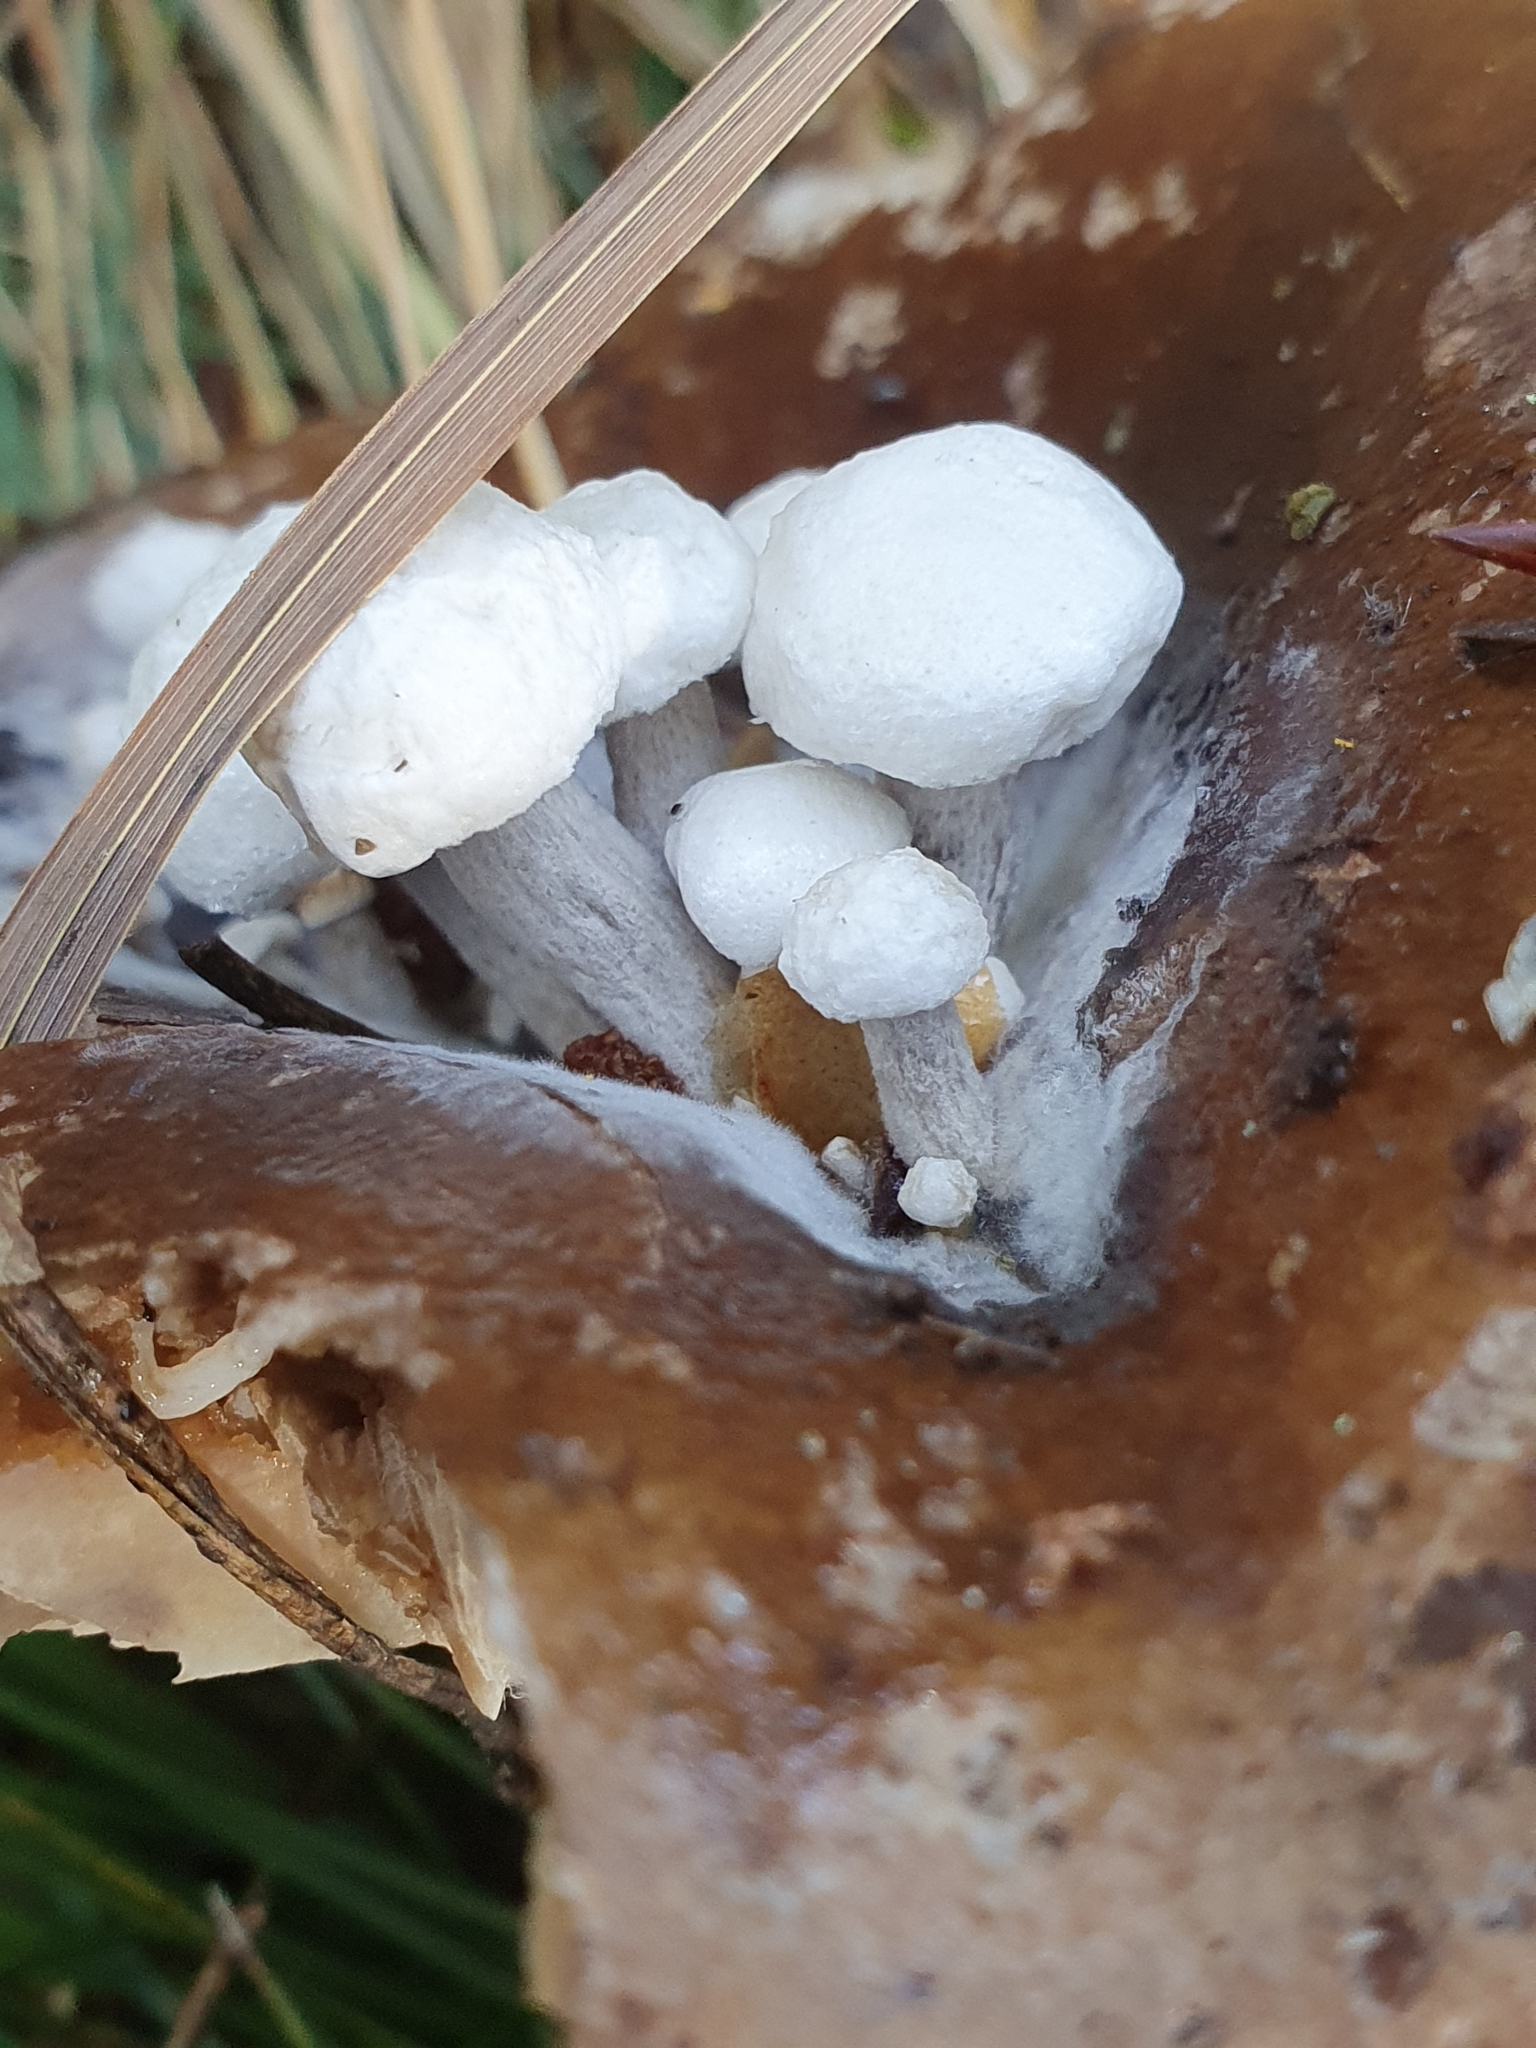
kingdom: Fungi
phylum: Basidiomycota
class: Agaricomycetes
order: Agaricales
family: Lyophyllaceae
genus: Asterophora
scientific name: Asterophora lycoperdoides
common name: Pick-a-back toadstool
